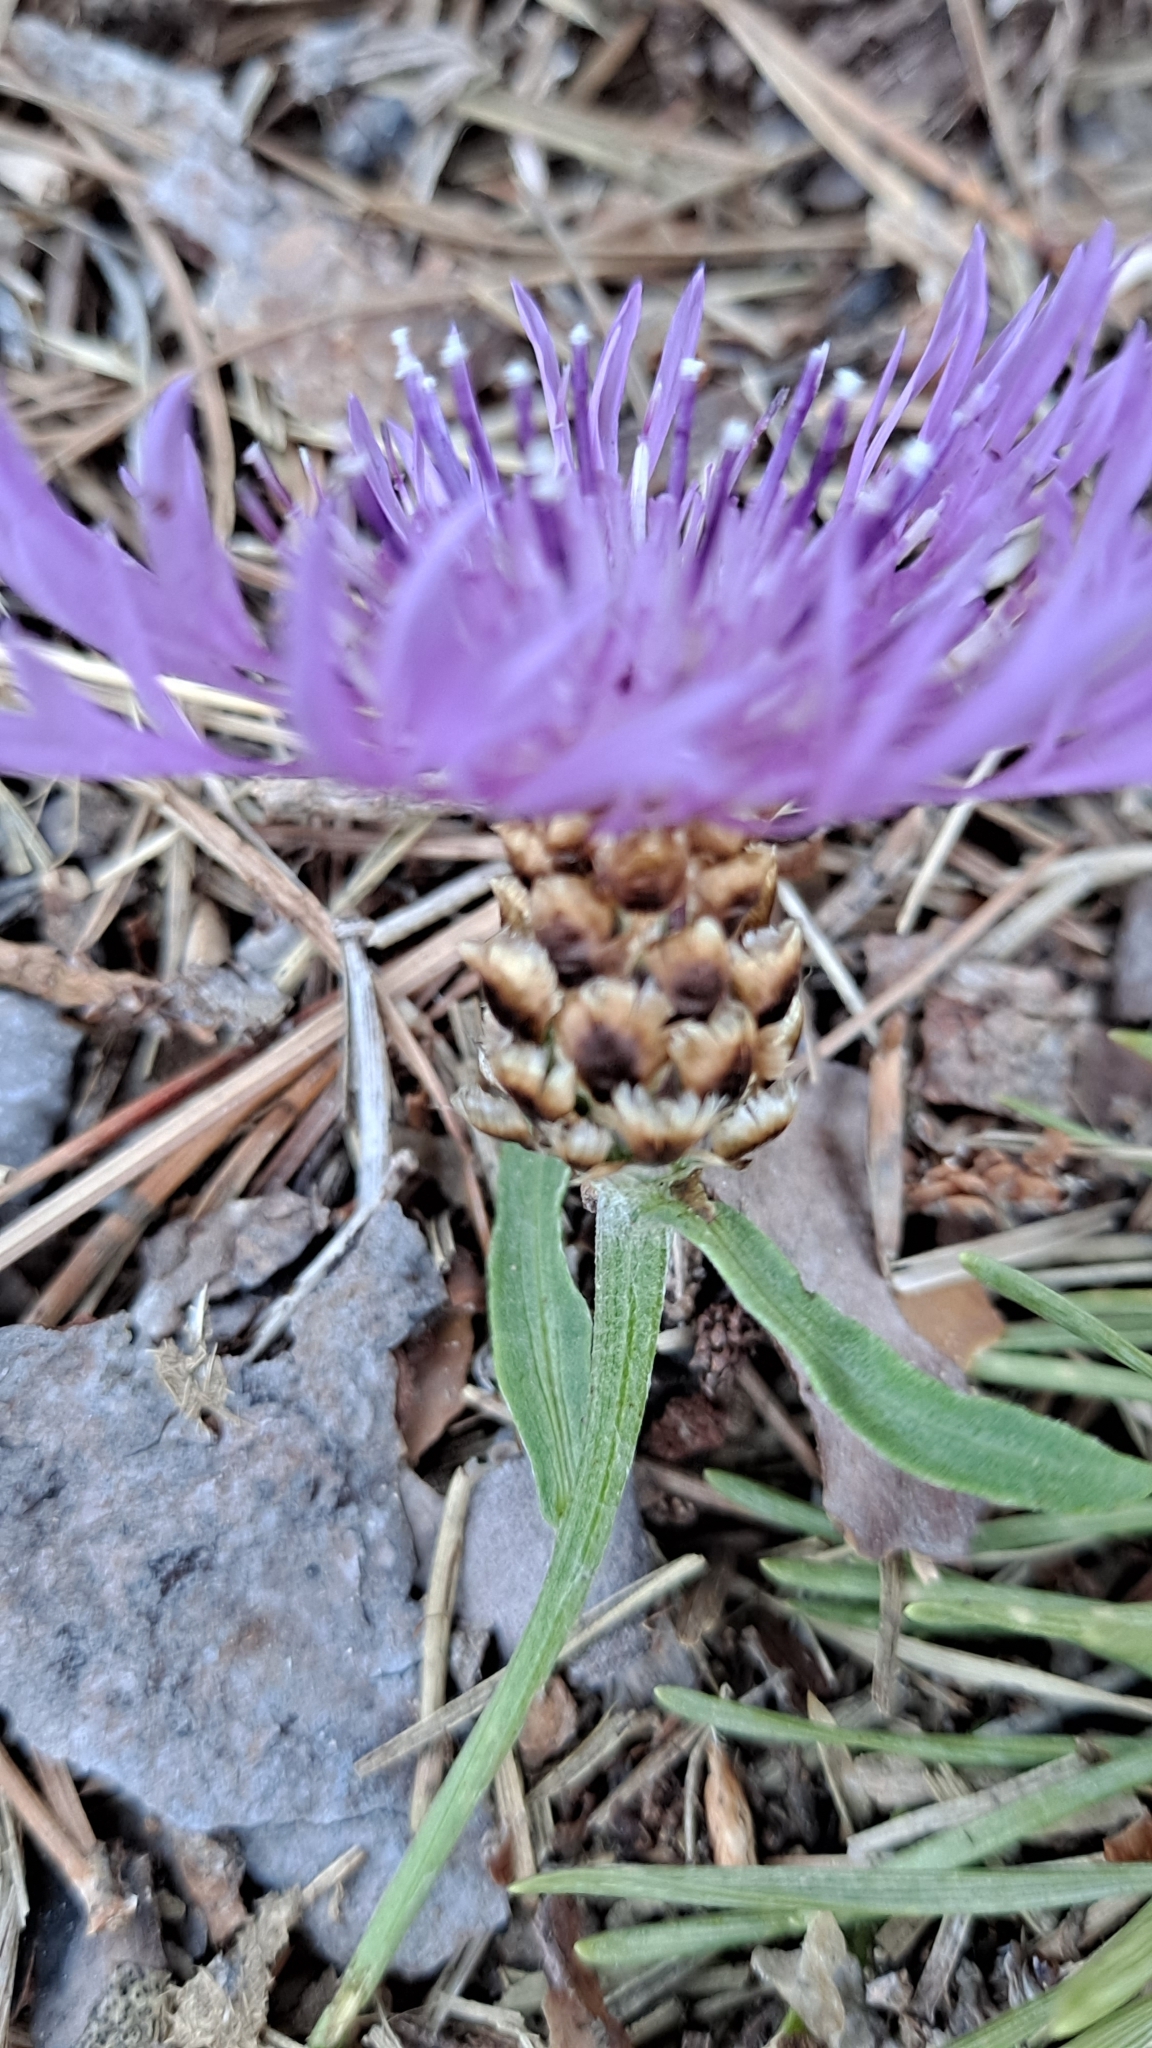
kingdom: Plantae
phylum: Tracheophyta
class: Magnoliopsida
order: Asterales
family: Asteraceae
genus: Centaurea
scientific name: Centaurea jacea
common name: Brown knapweed
